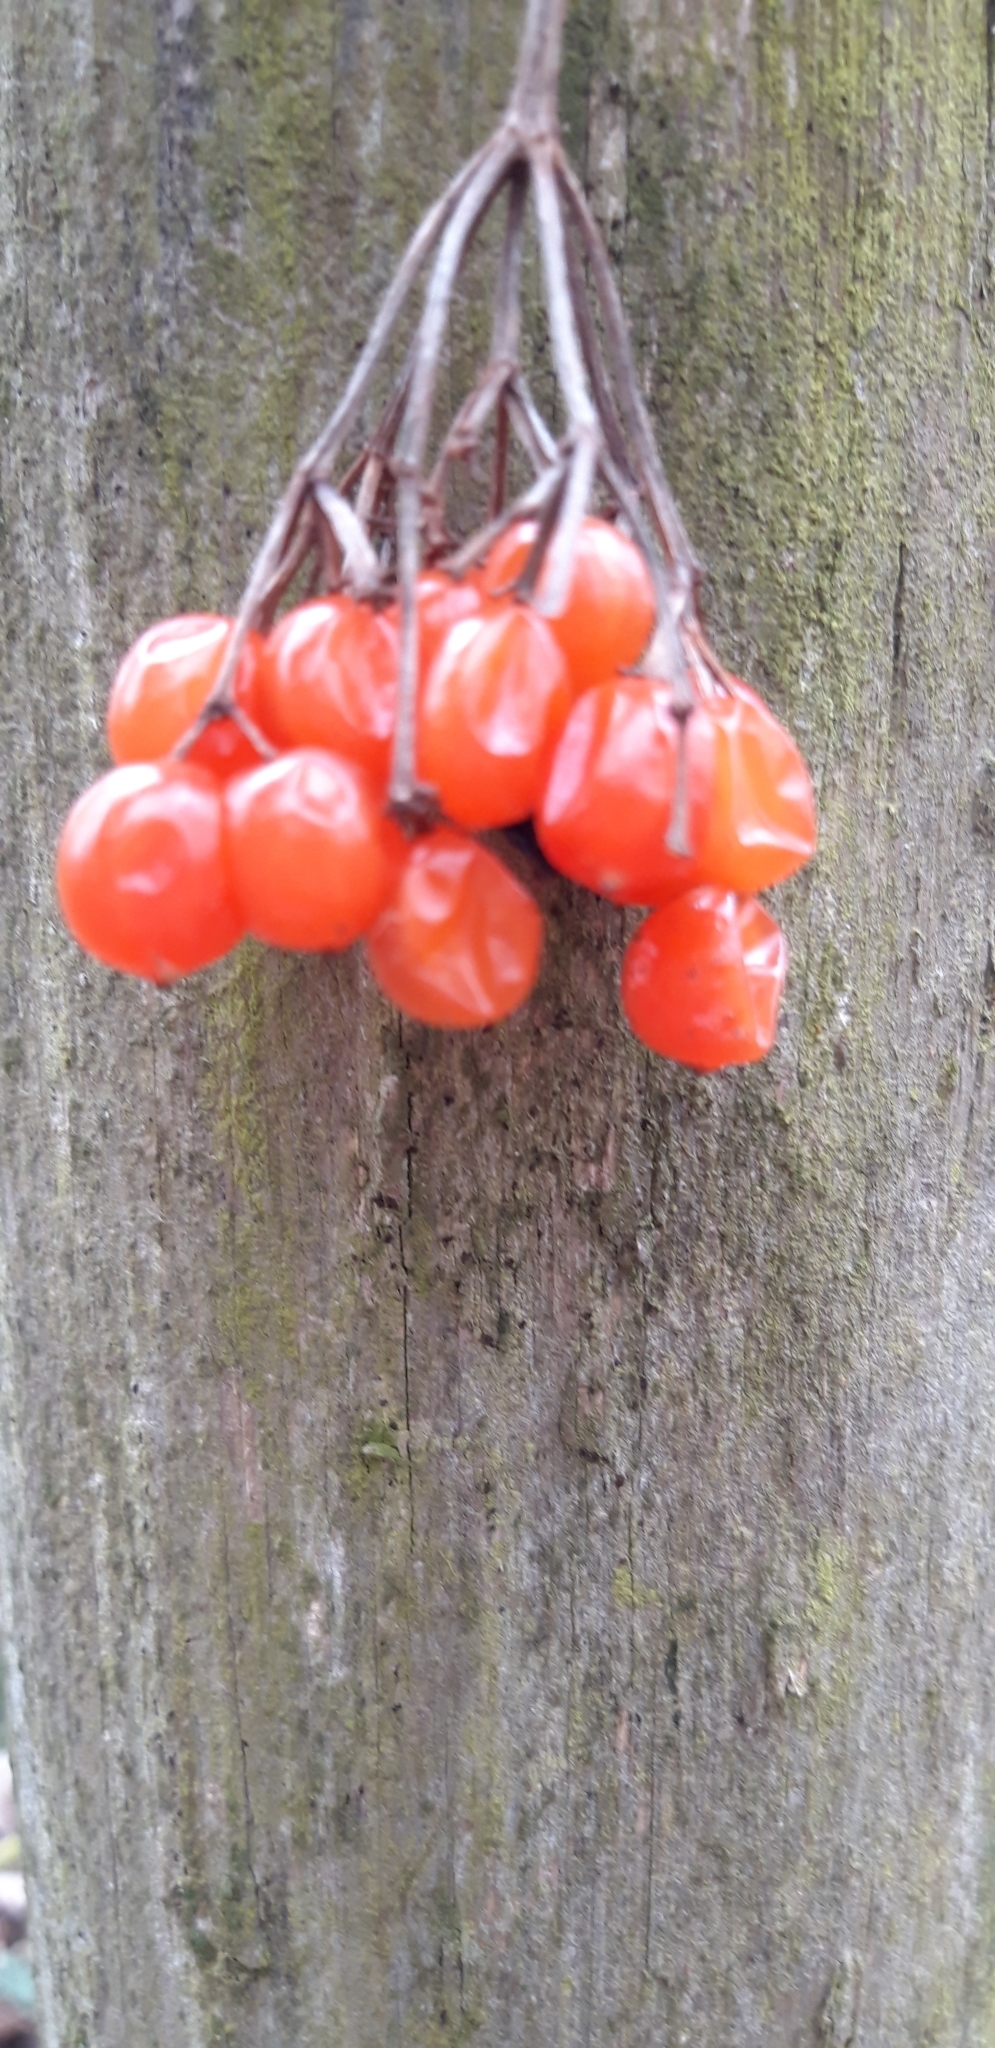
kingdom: Plantae
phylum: Tracheophyta
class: Magnoliopsida
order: Dipsacales
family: Viburnaceae
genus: Viburnum
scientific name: Viburnum opulus
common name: Guelder-rose
